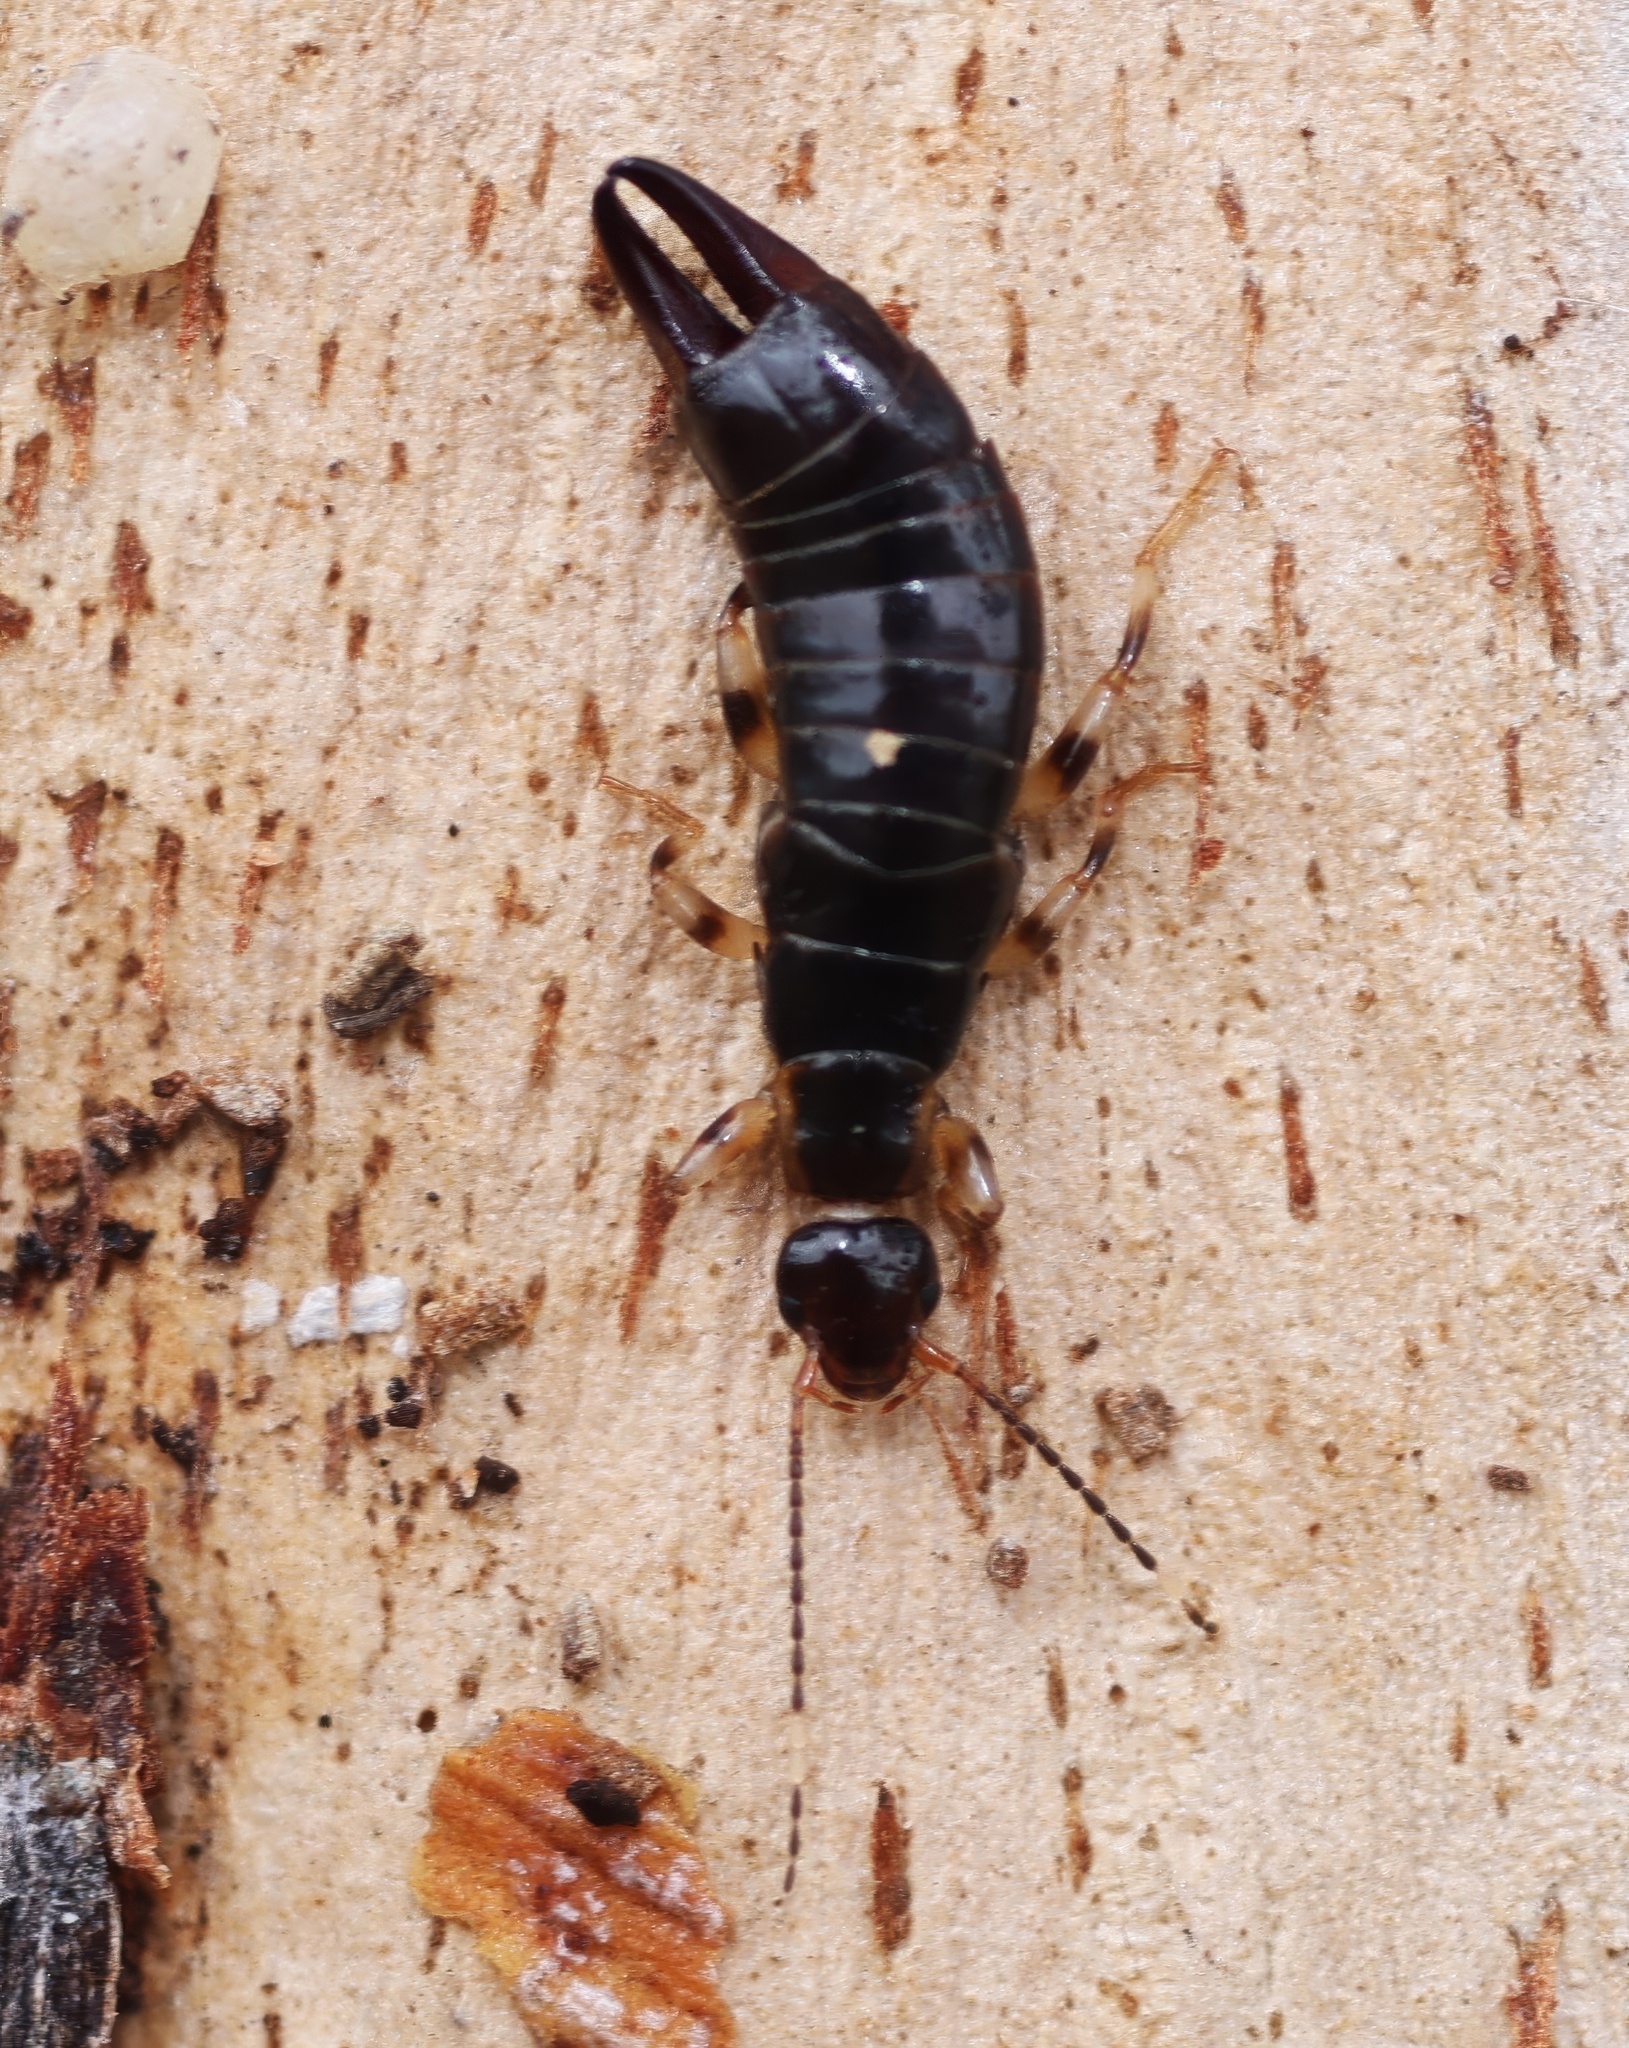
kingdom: Animalia
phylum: Arthropoda
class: Insecta
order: Dermaptera
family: Anisolabididae
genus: Euborellia
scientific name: Euborellia annulipes
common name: Ringlegged earwig
